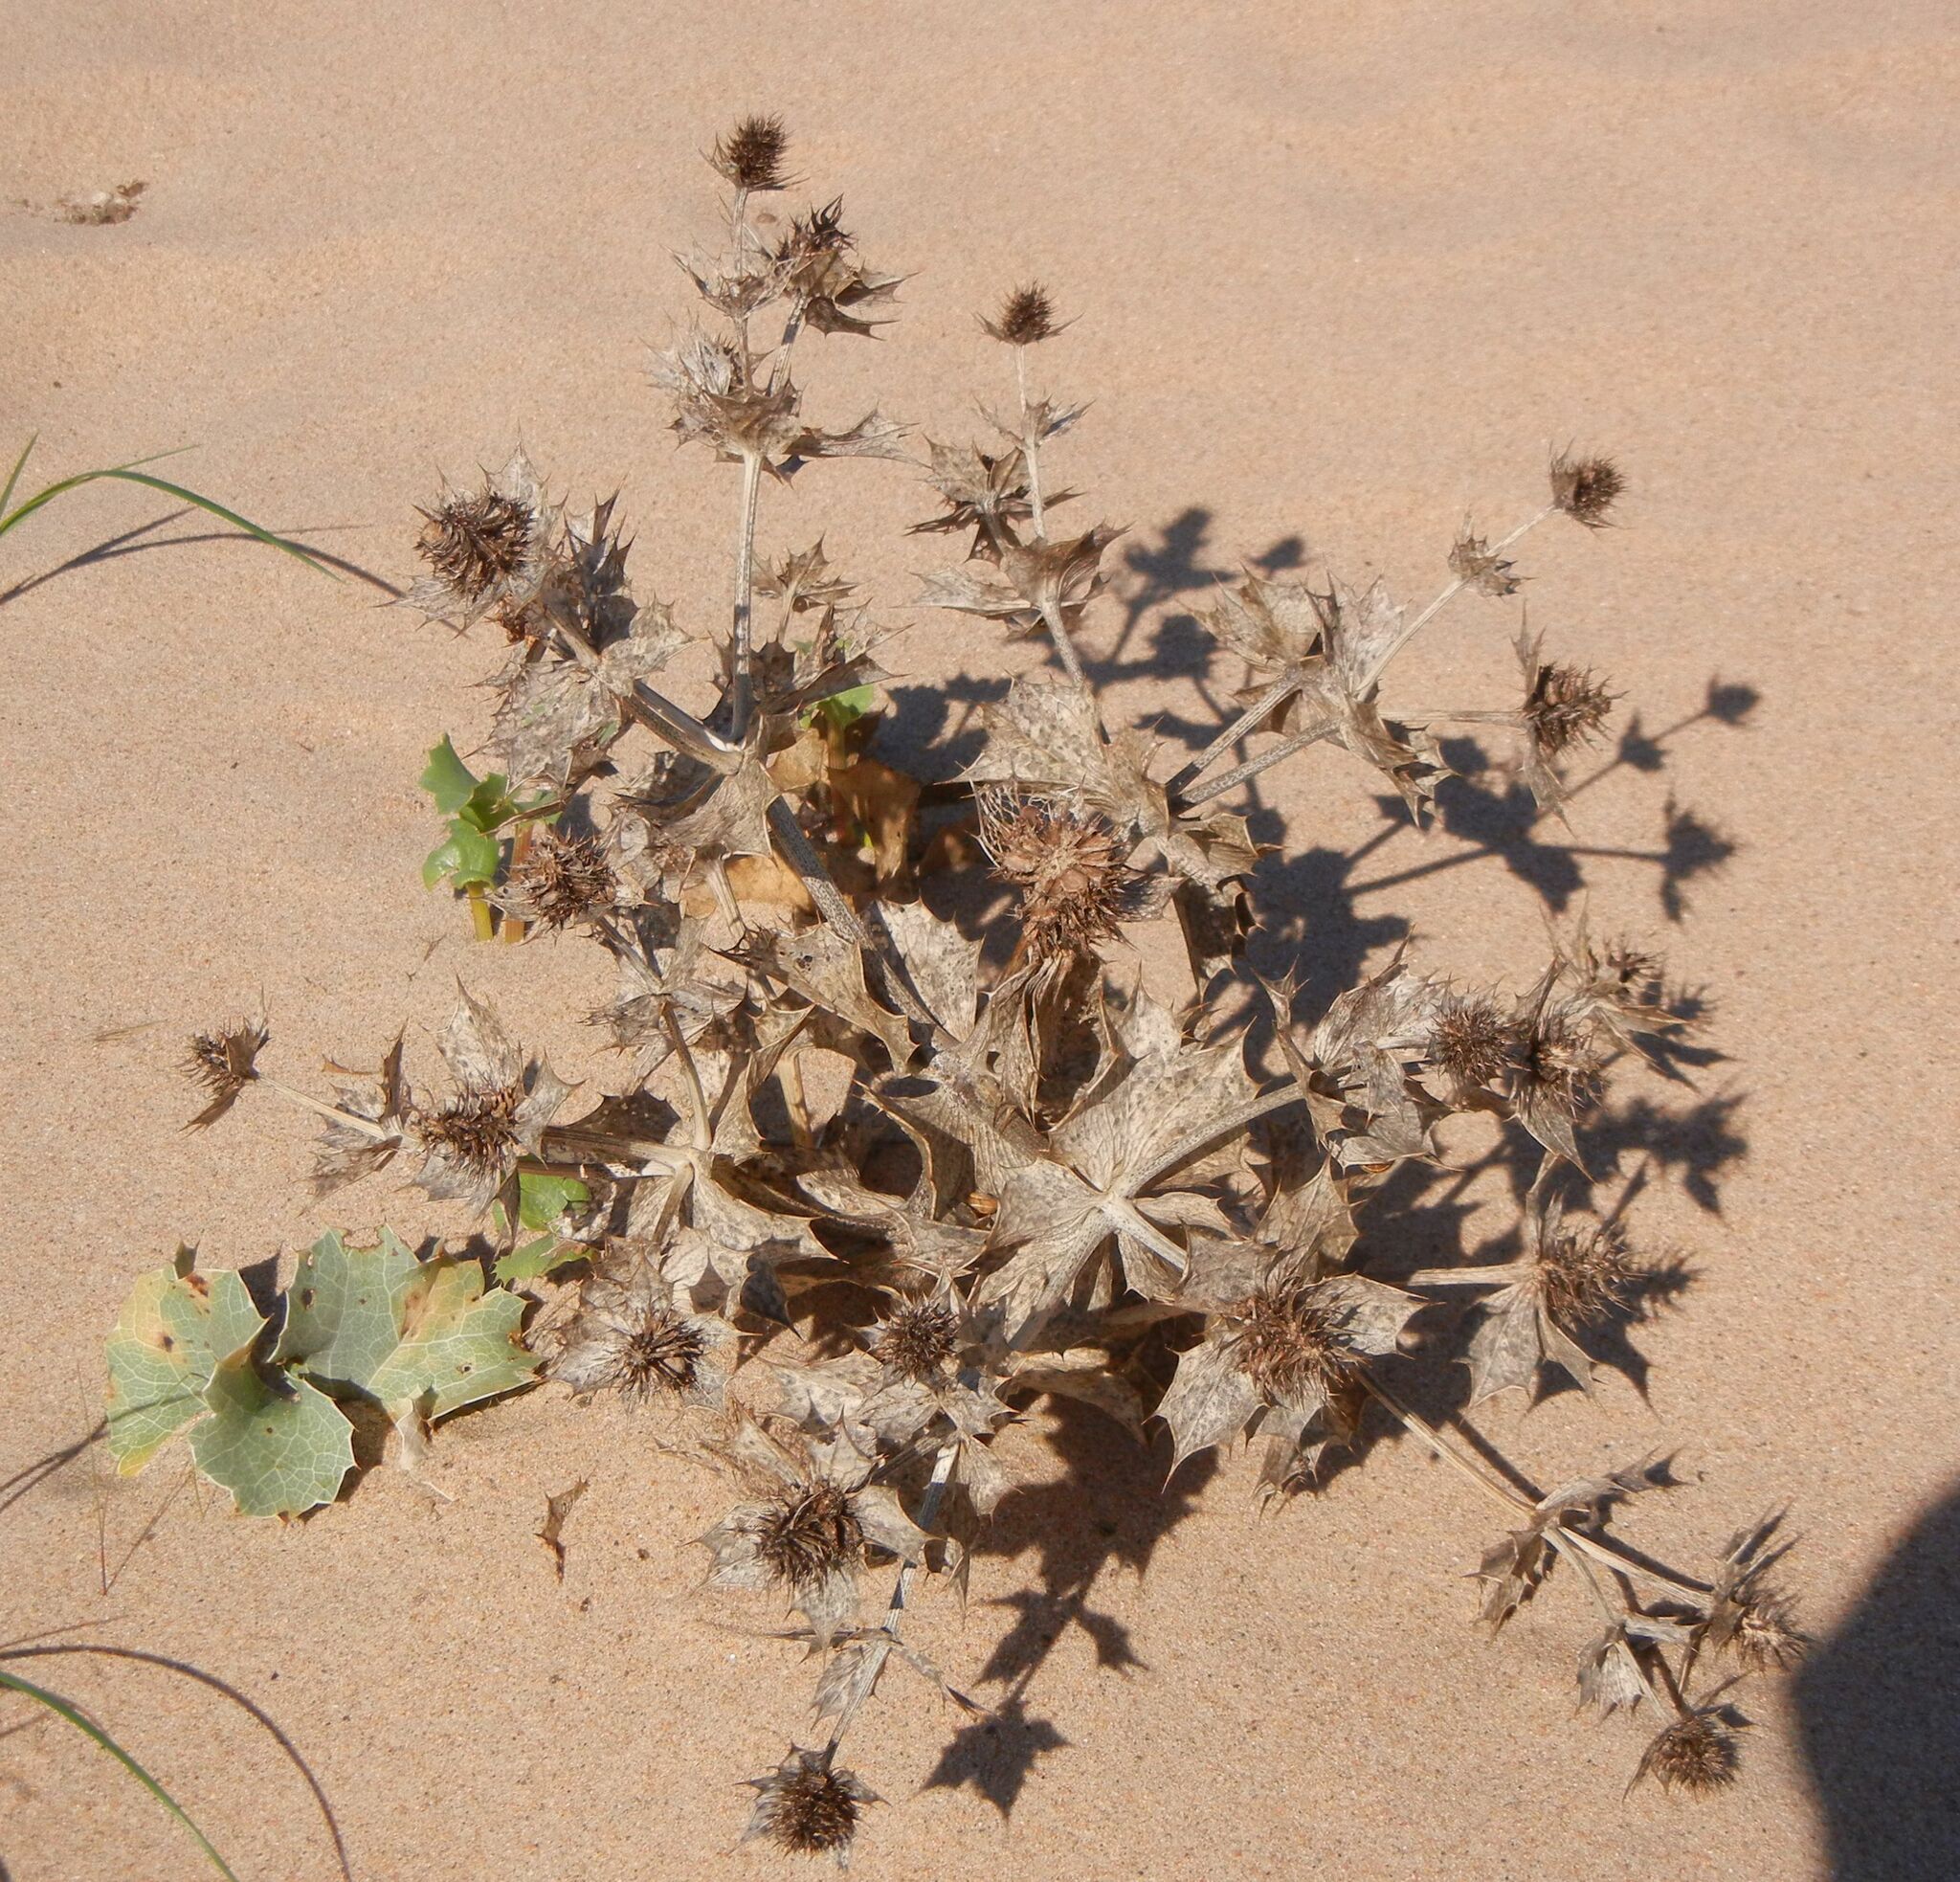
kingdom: Plantae
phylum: Tracheophyta
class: Magnoliopsida
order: Apiales
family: Apiaceae
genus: Eryngium
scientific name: Eryngium maritimum
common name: Sea-holly
